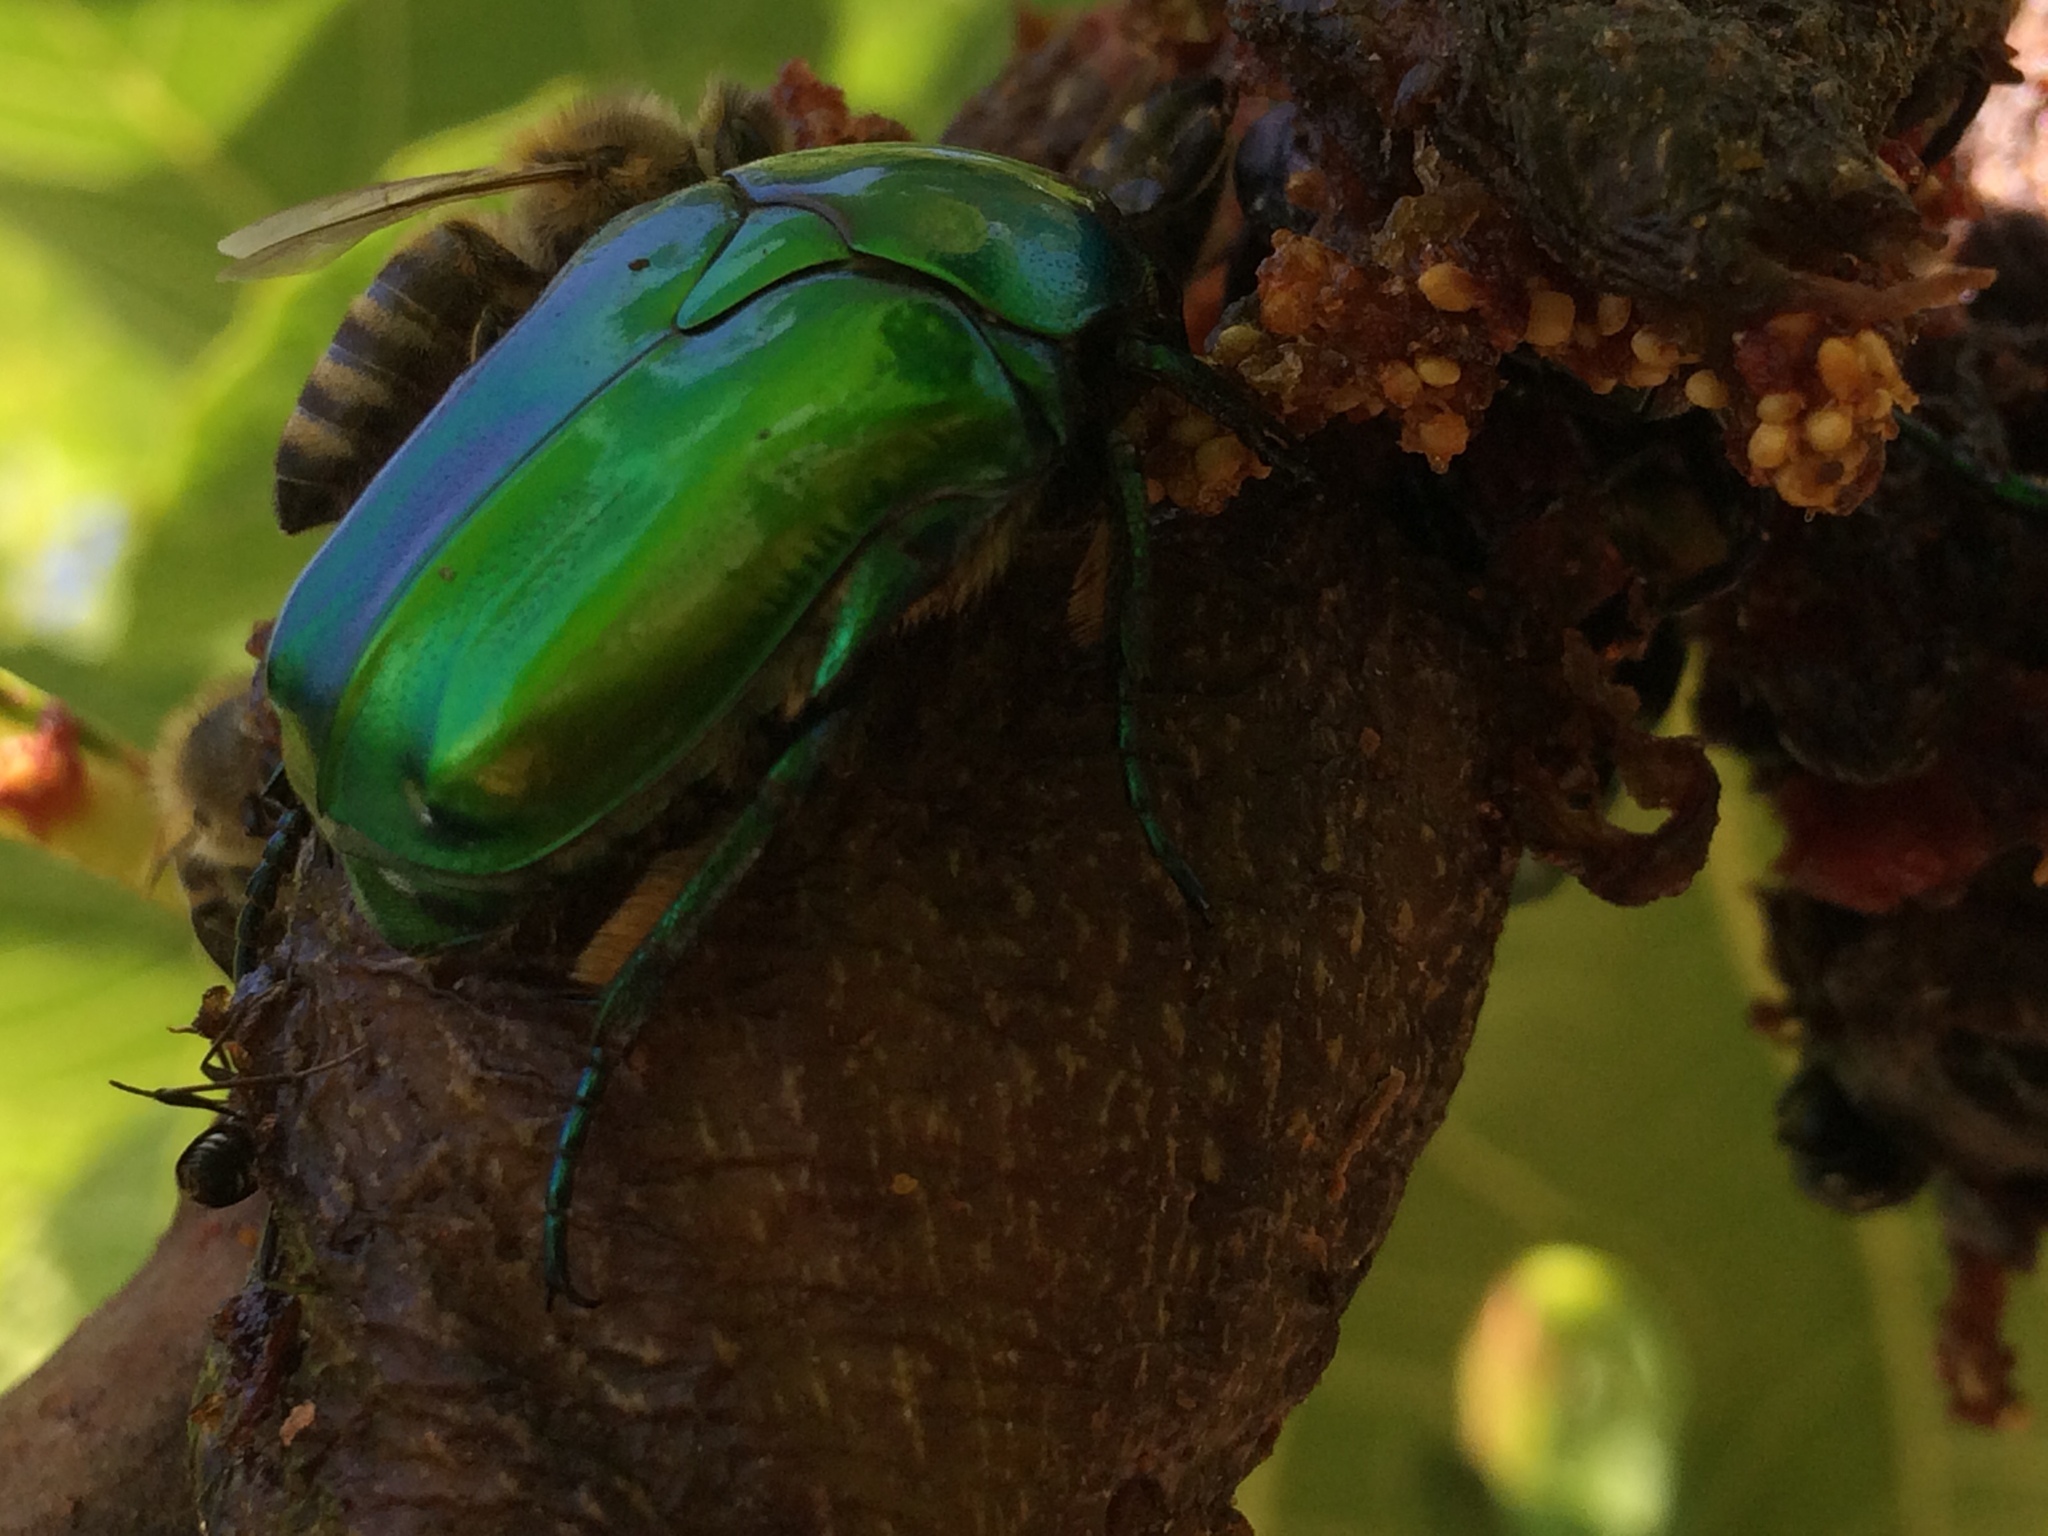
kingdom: Animalia
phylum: Arthropoda
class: Insecta
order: Coleoptera
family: Scarabaeidae
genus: Protaetia
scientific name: Protaetia affinis
